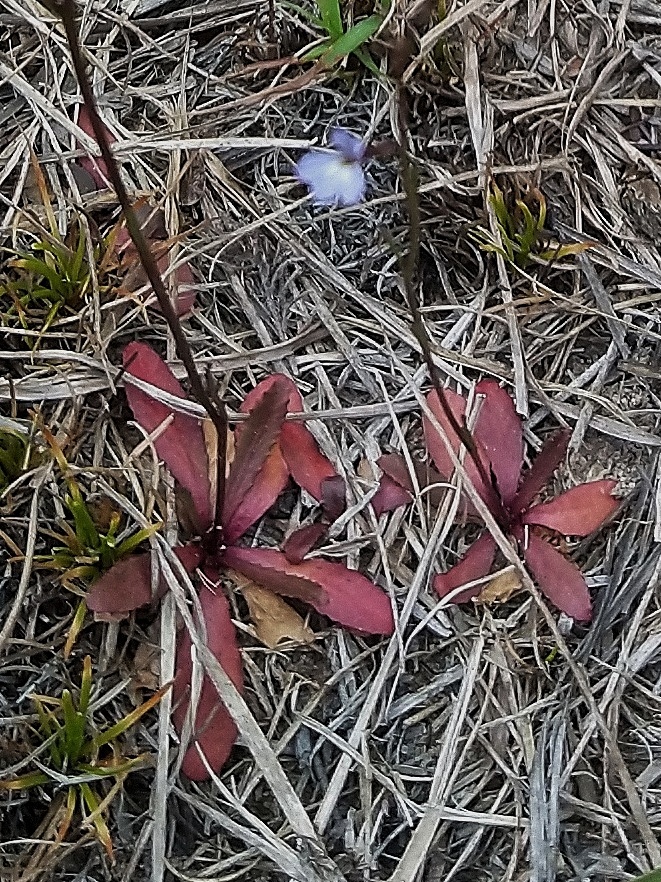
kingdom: Plantae
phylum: Tracheophyta
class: Magnoliopsida
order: Asterales
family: Campanulaceae
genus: Wimmerella
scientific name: Wimmerella arabidea
